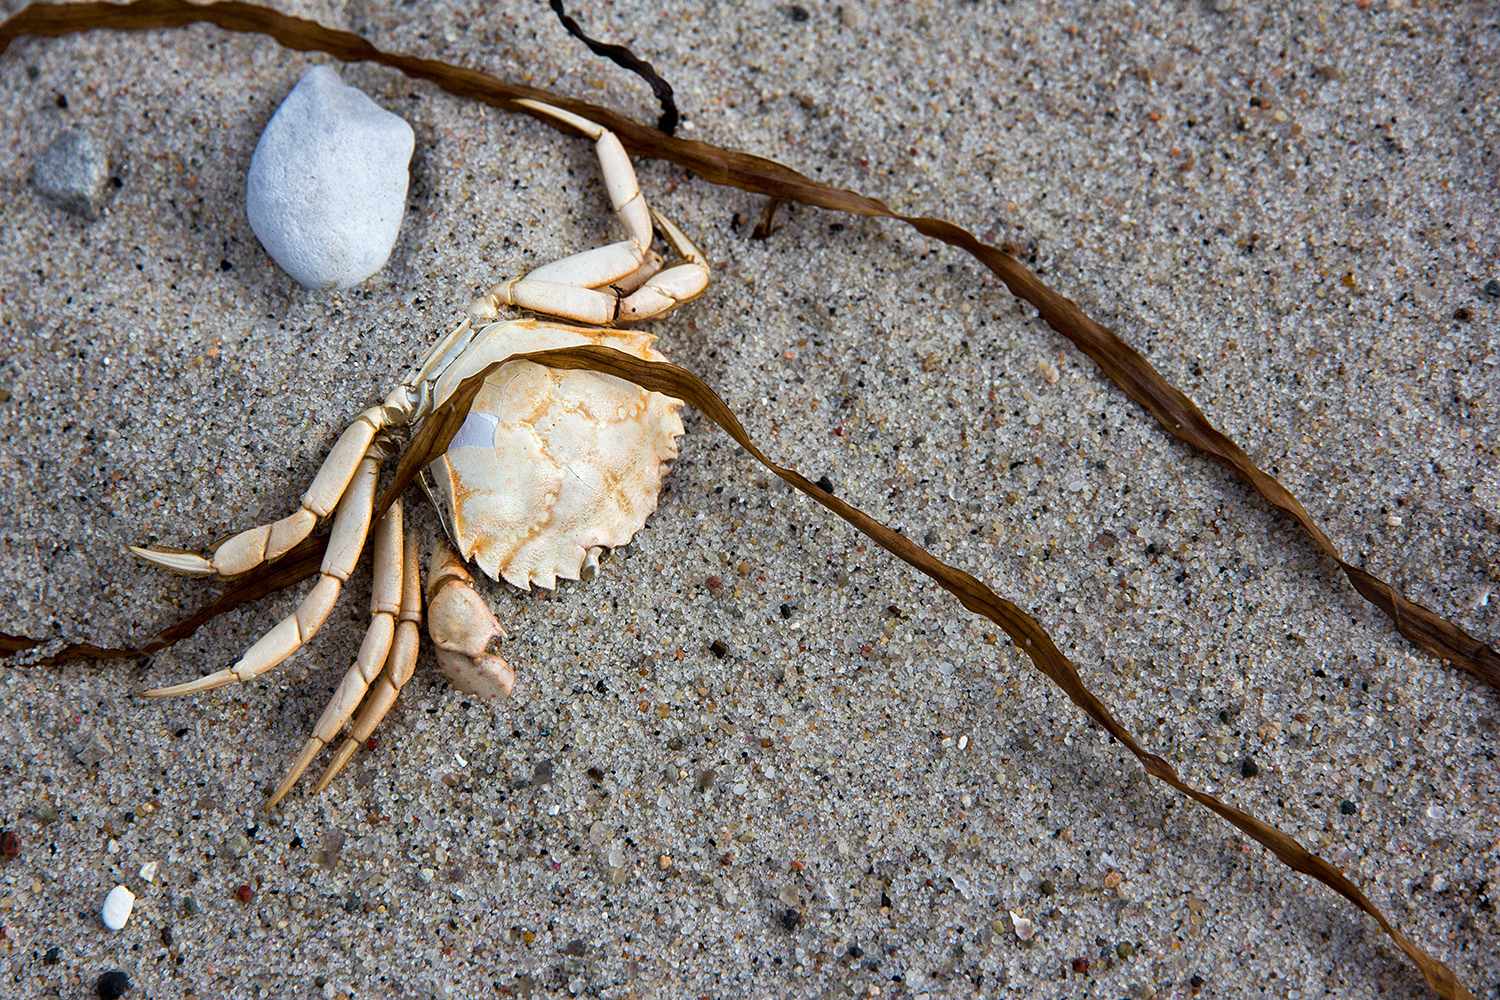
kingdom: Animalia
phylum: Arthropoda
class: Malacostraca
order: Decapoda
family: Carcinidae
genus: Carcinus
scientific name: Carcinus maenas
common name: European green crab
